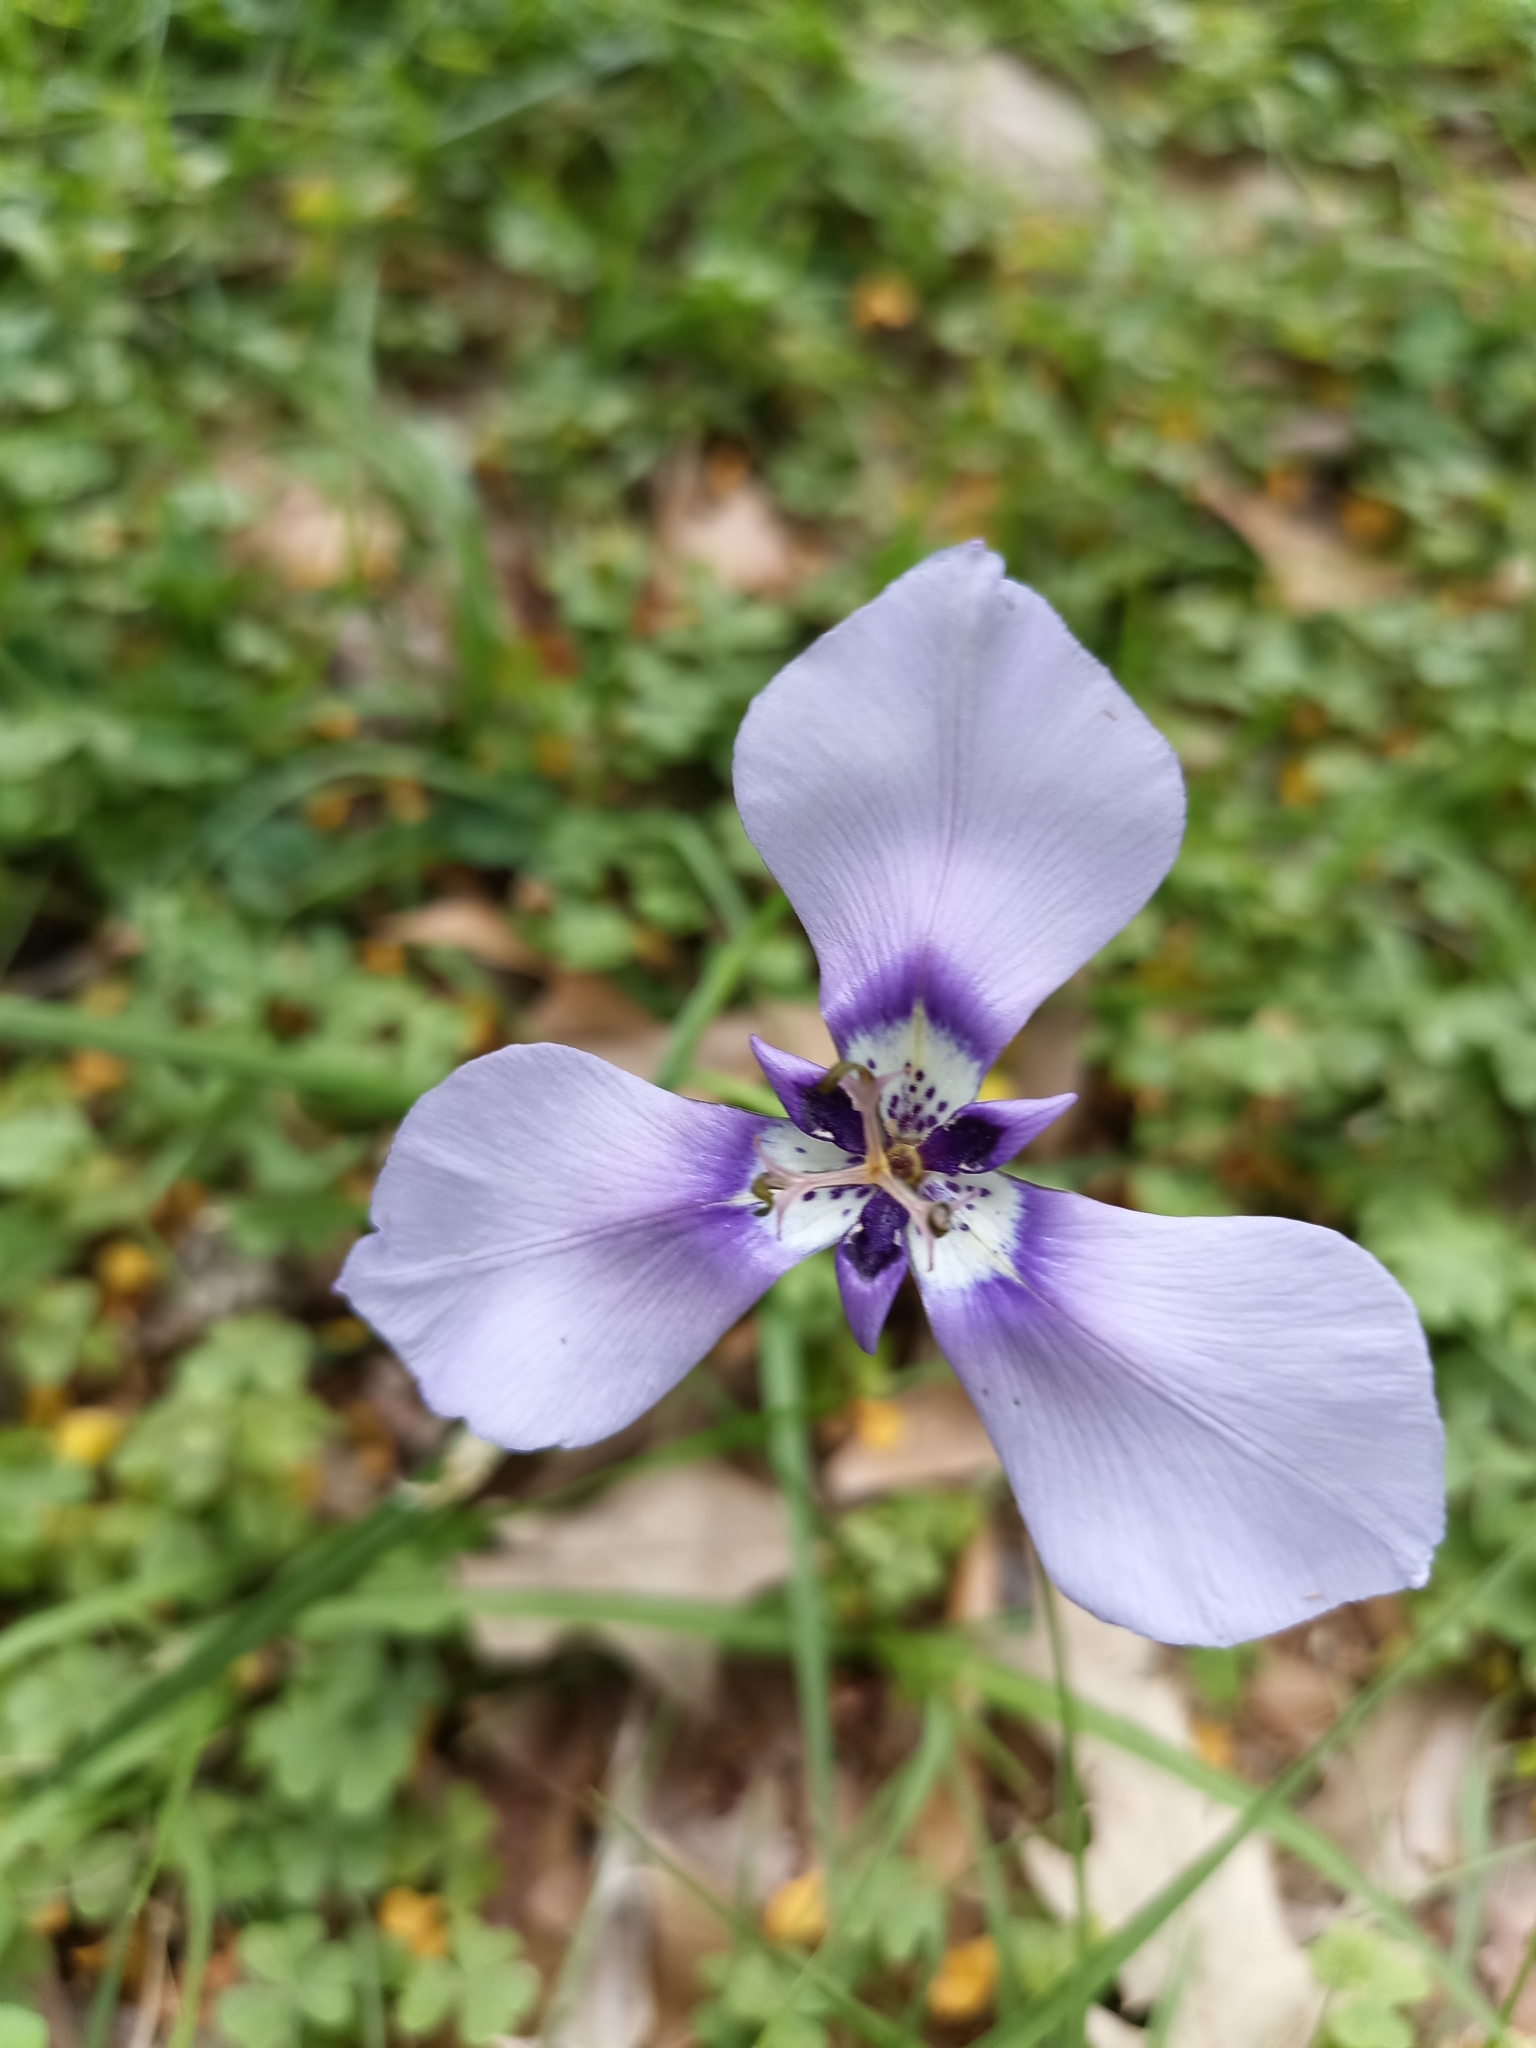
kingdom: Plantae
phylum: Tracheophyta
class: Liliopsida
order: Asparagales
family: Iridaceae
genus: Herbertia
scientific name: Herbertia lahue
